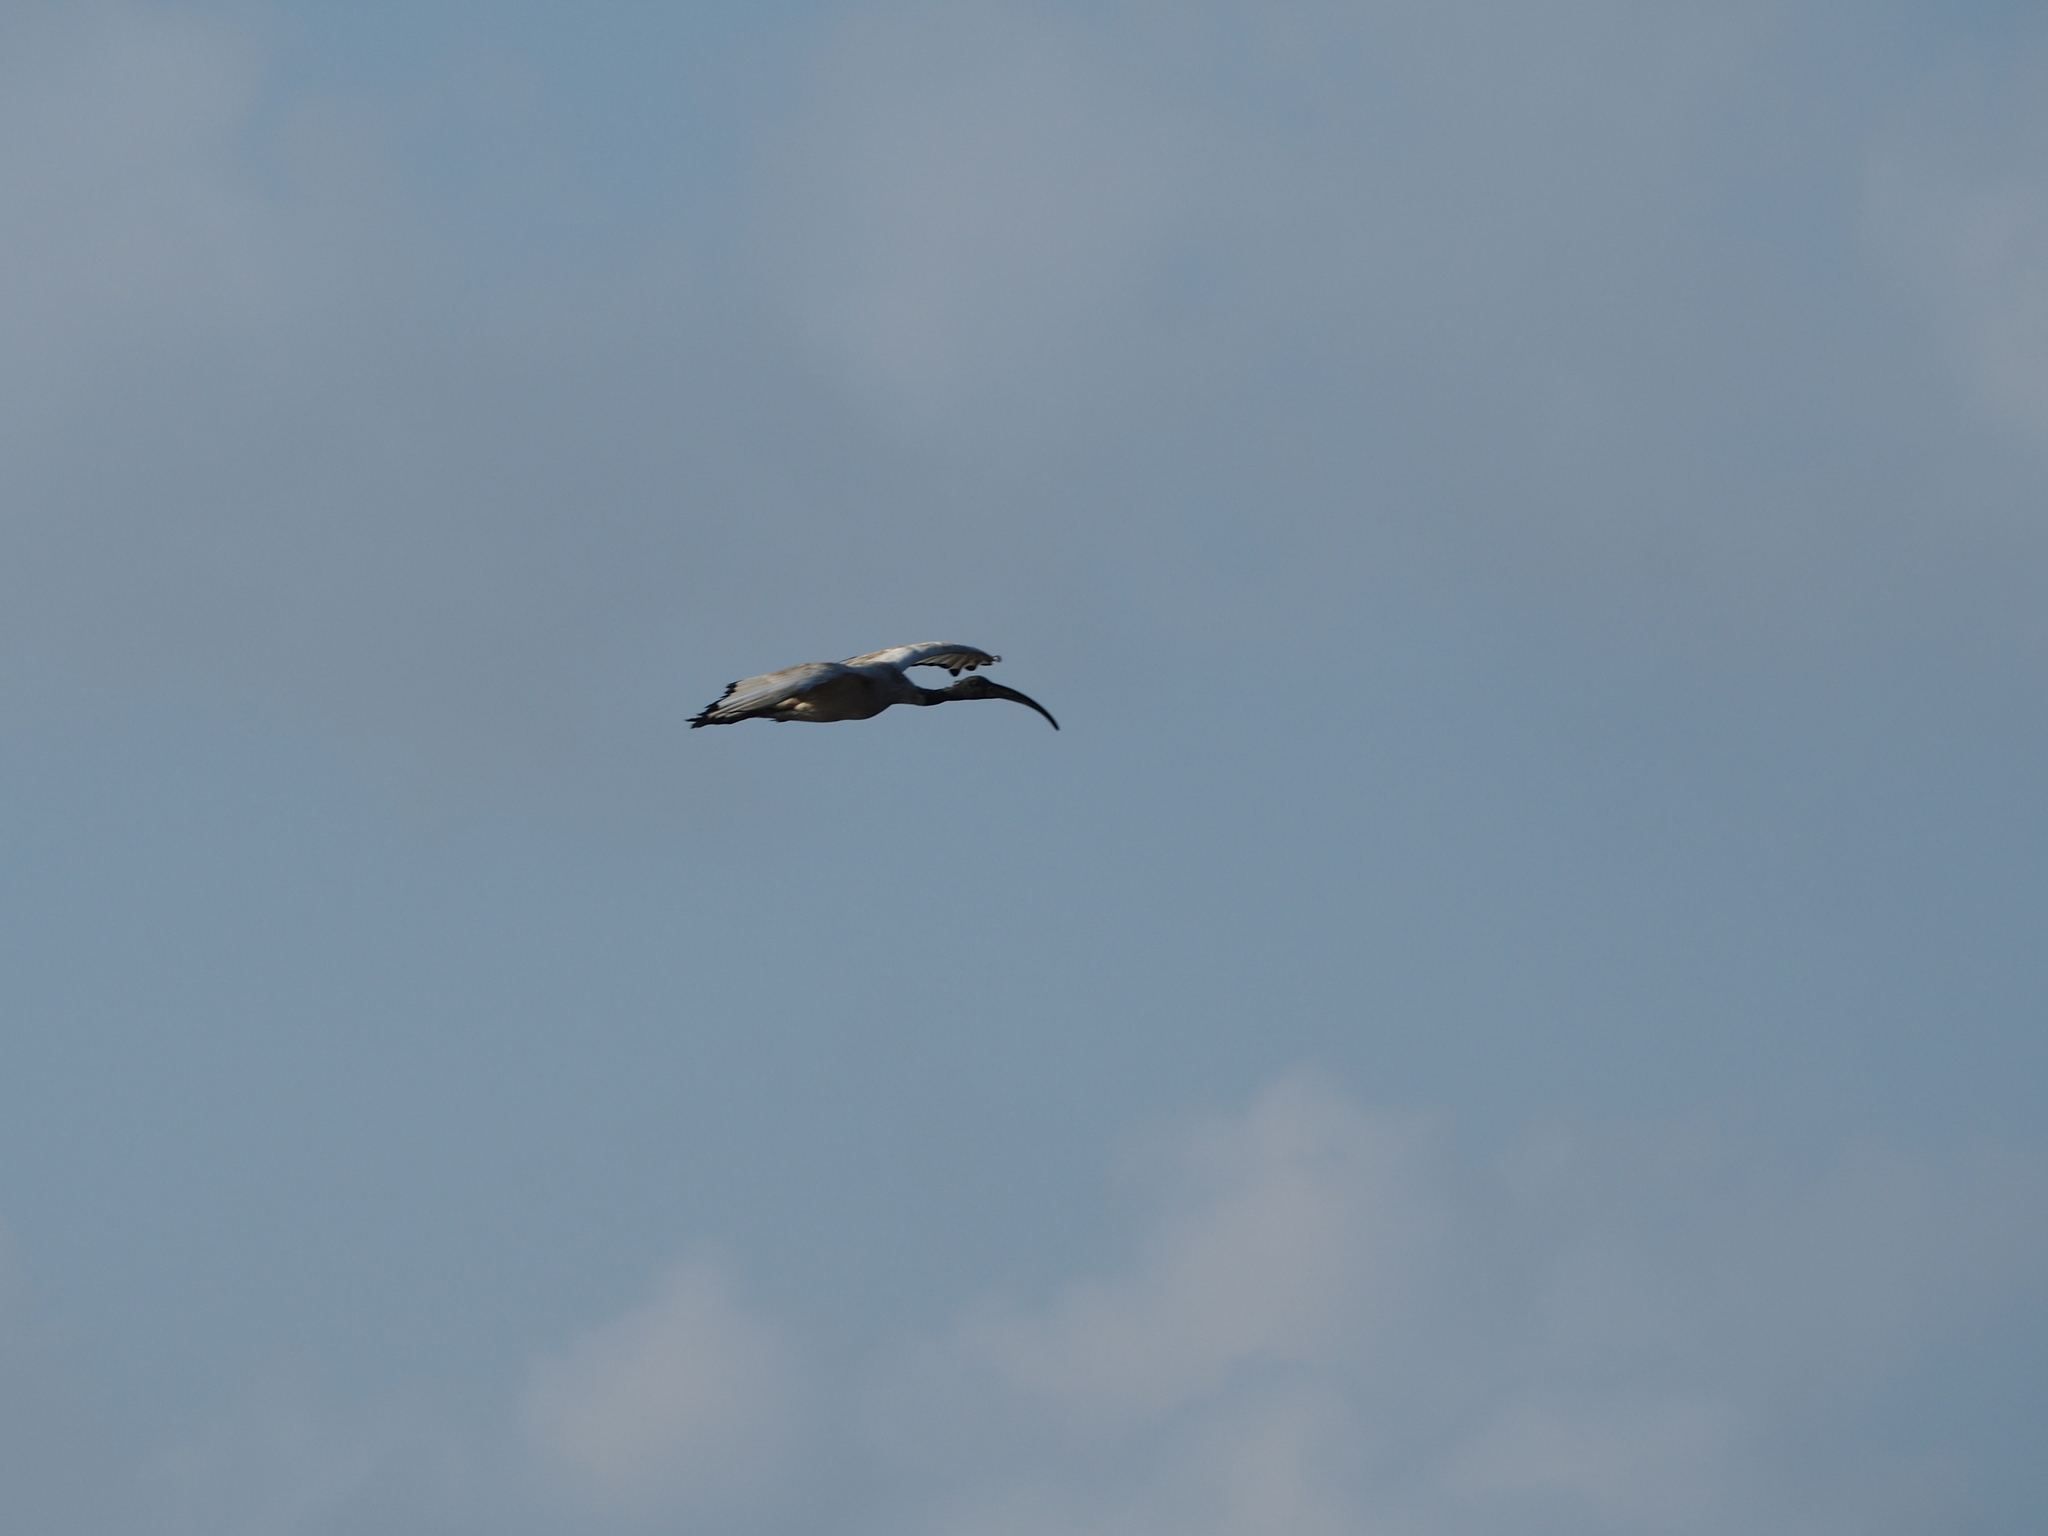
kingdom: Animalia
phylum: Chordata
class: Aves
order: Pelecaniformes
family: Threskiornithidae
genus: Threskiornis
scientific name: Threskiornis aethiopicus
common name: Sacred ibis
